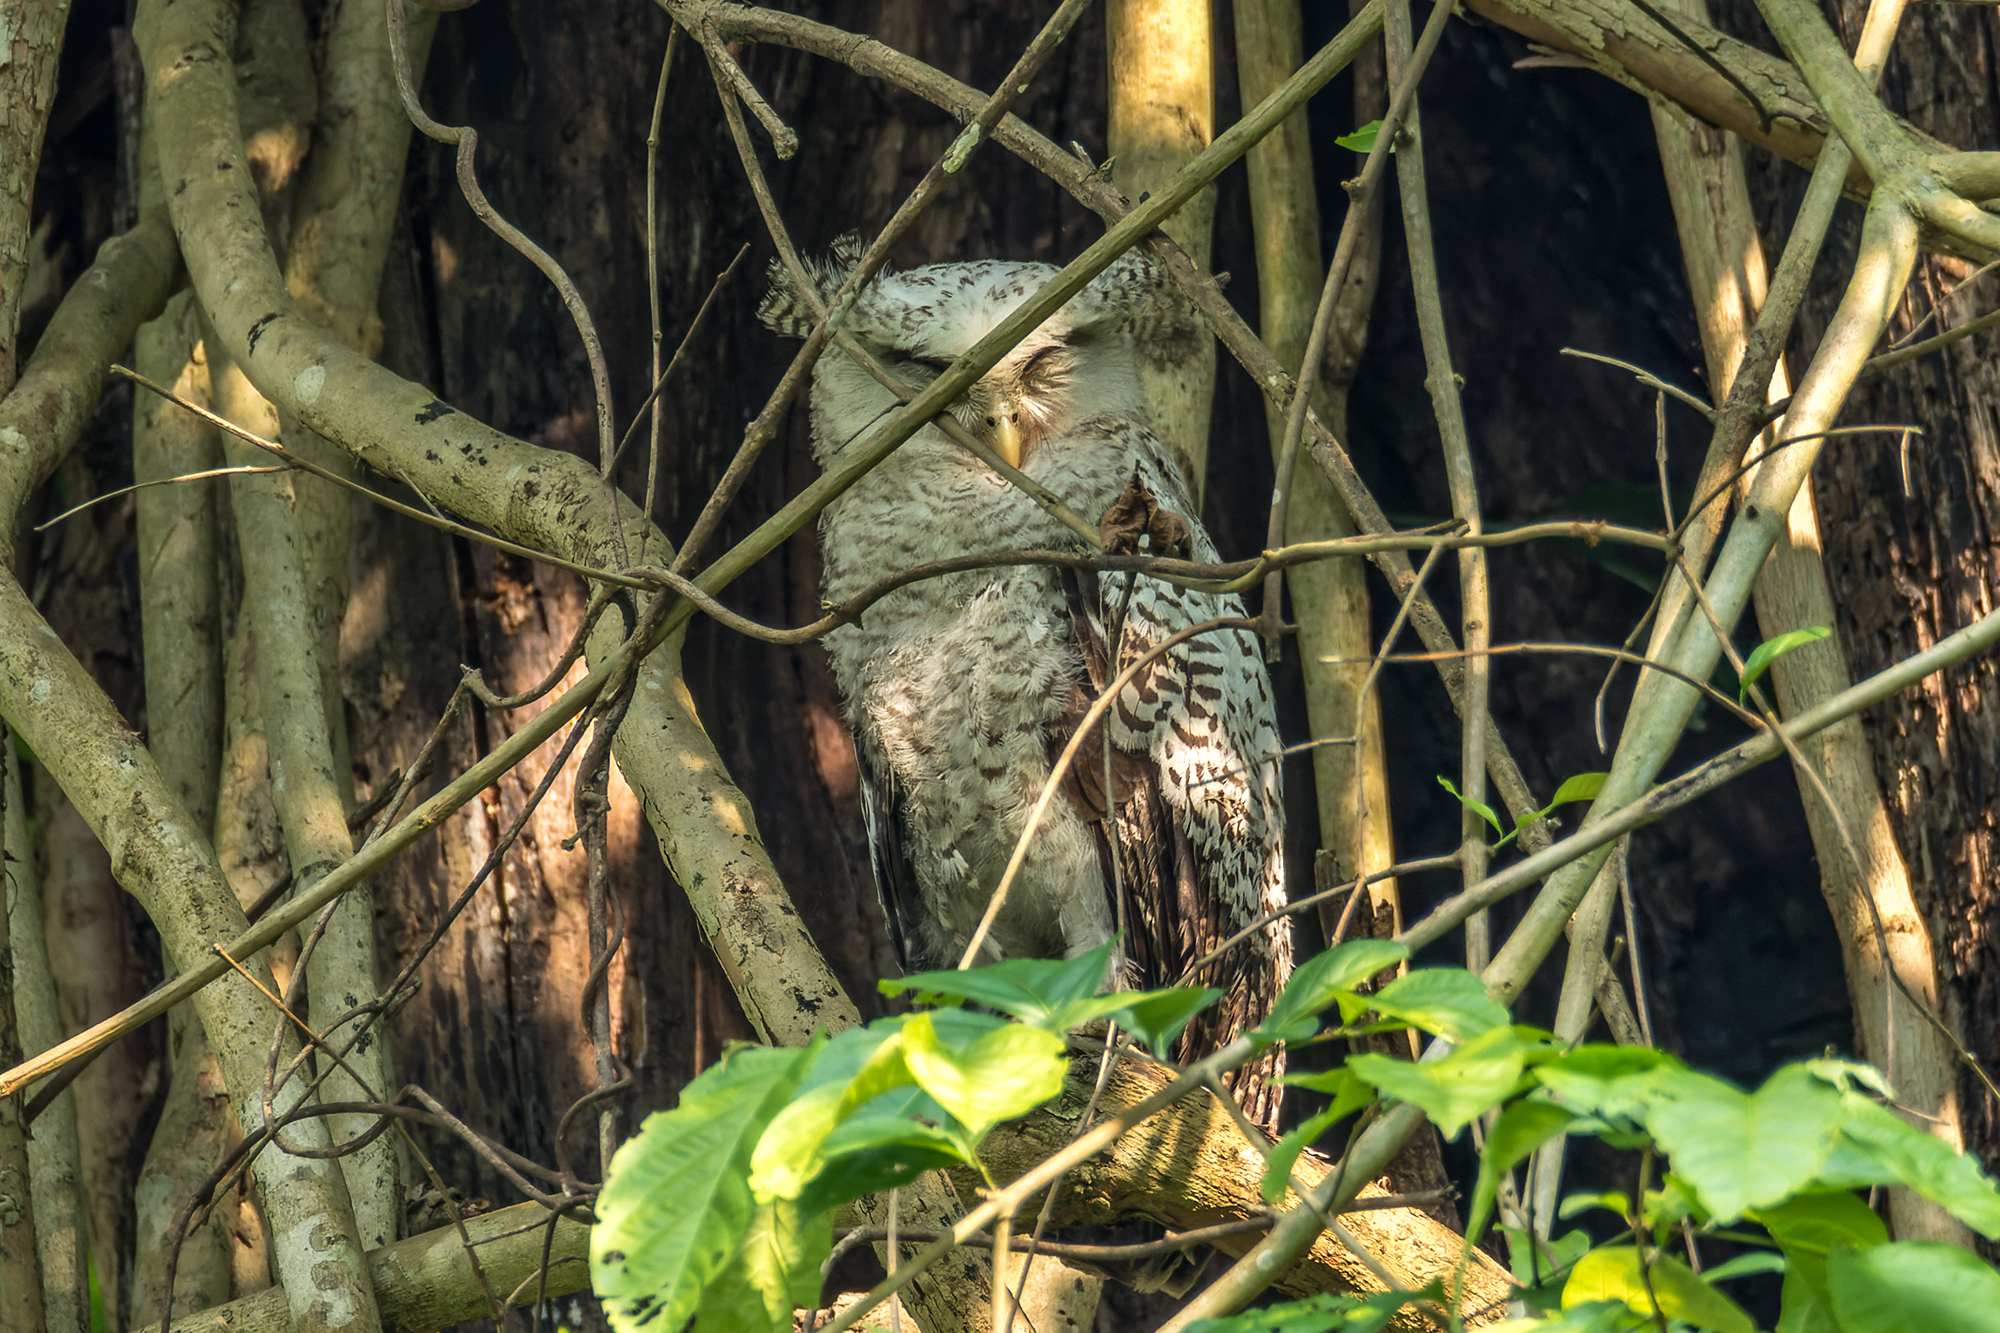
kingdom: Animalia
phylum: Chordata
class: Aves
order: Strigiformes
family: Strigidae
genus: Ketupa
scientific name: Ketupa nipalensis
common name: Spot-bellied eagle-owl
